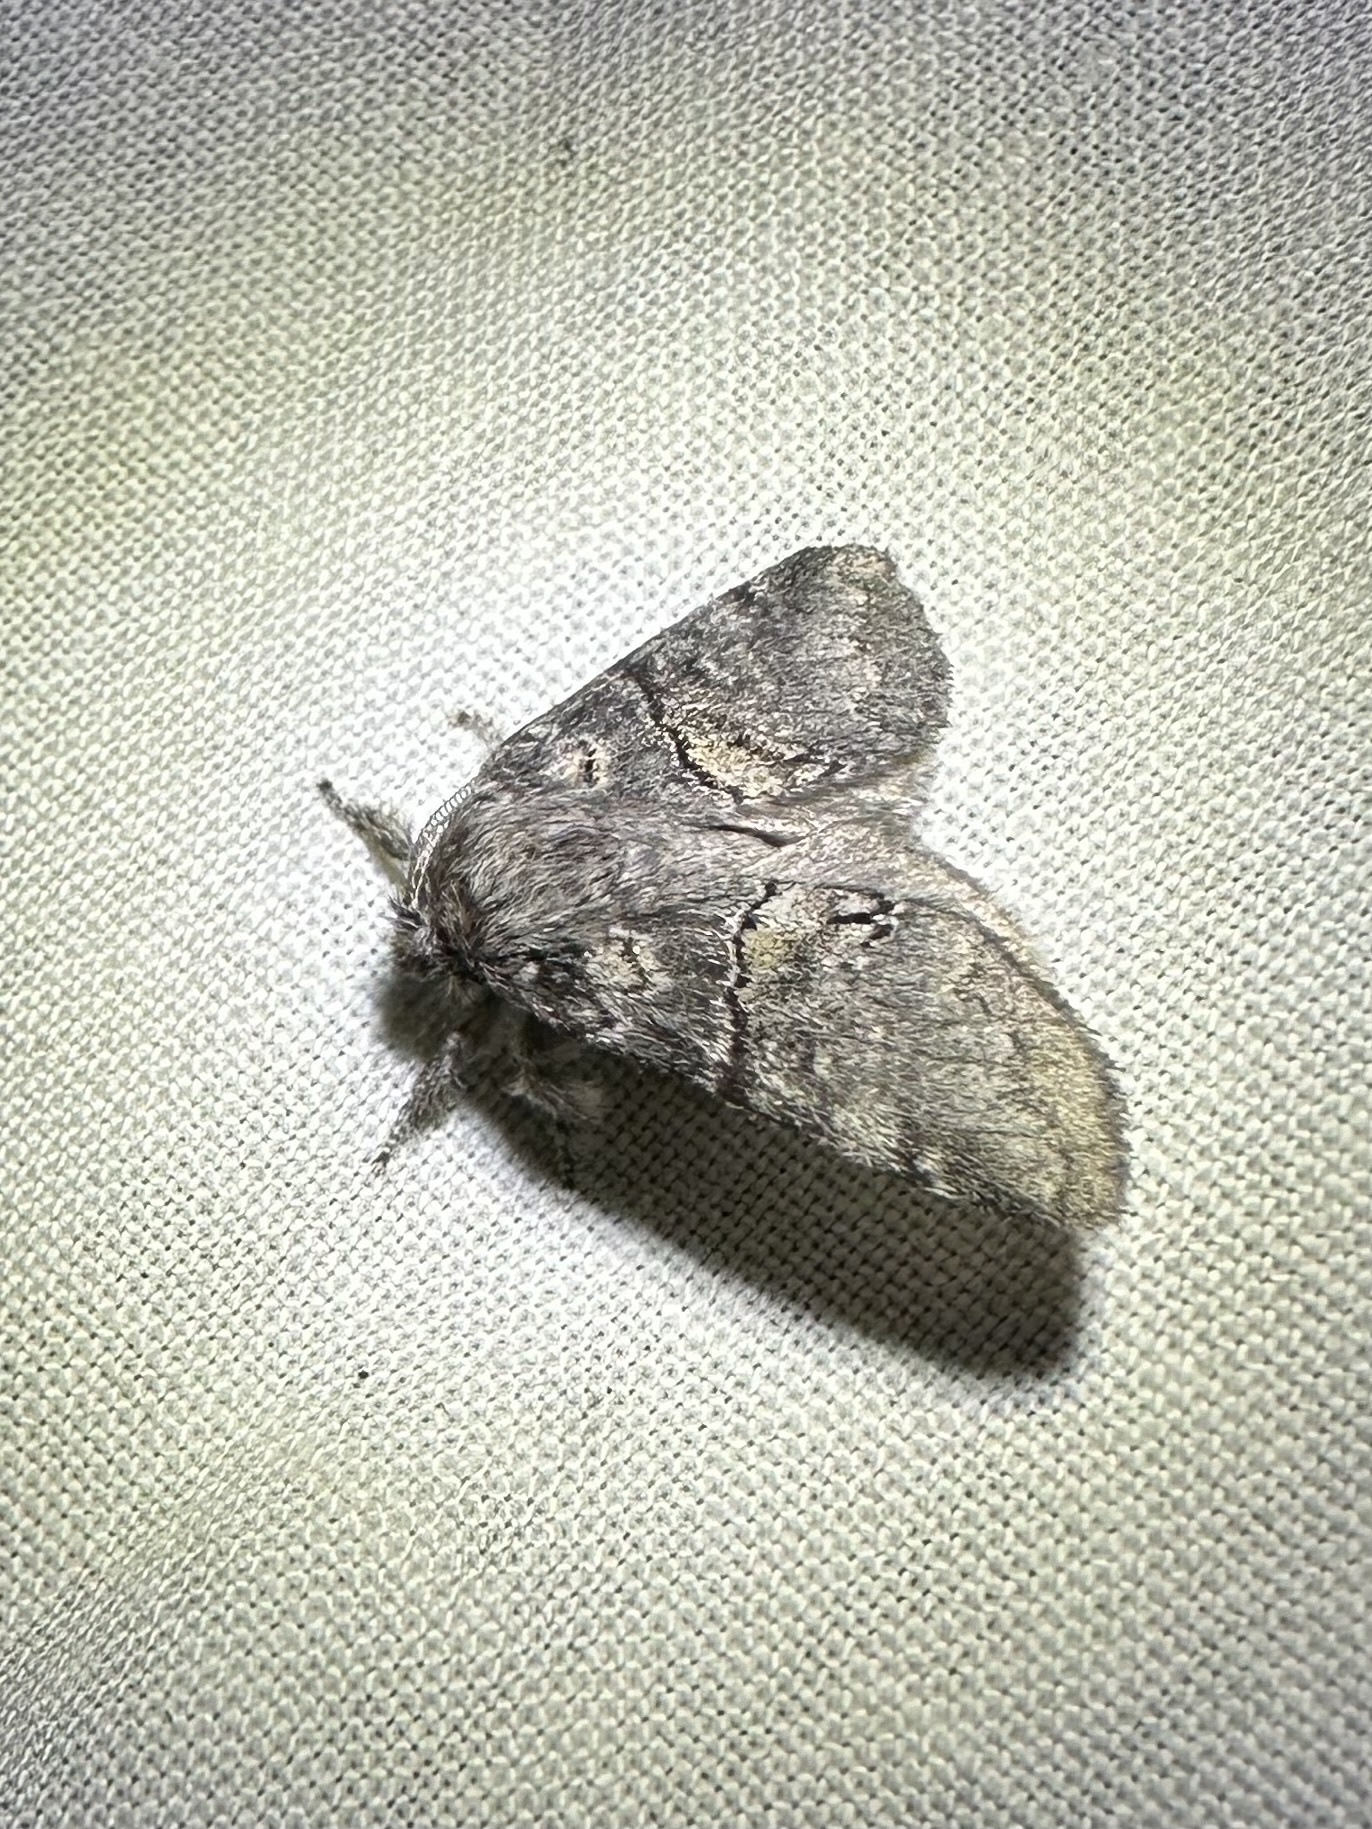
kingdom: Animalia
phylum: Arthropoda
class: Insecta
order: Lepidoptera
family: Notodontidae
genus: Gluphisia
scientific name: Gluphisia septentrionis
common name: Common gluphisia
